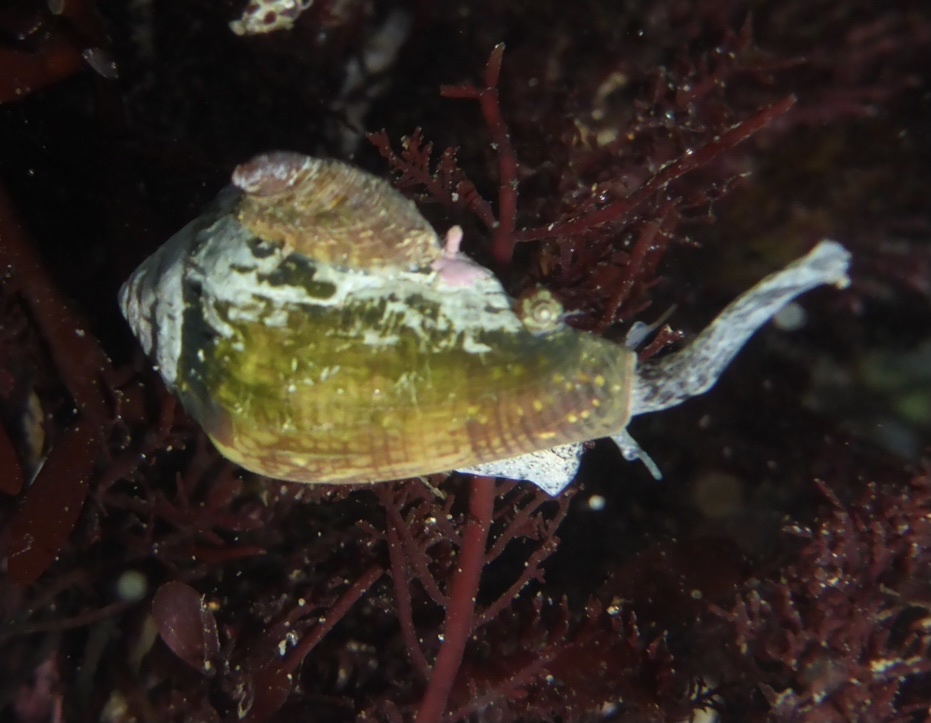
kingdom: Animalia
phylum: Mollusca
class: Gastropoda
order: Neogastropoda
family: Conidae
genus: Californiconus
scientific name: Californiconus californicus
